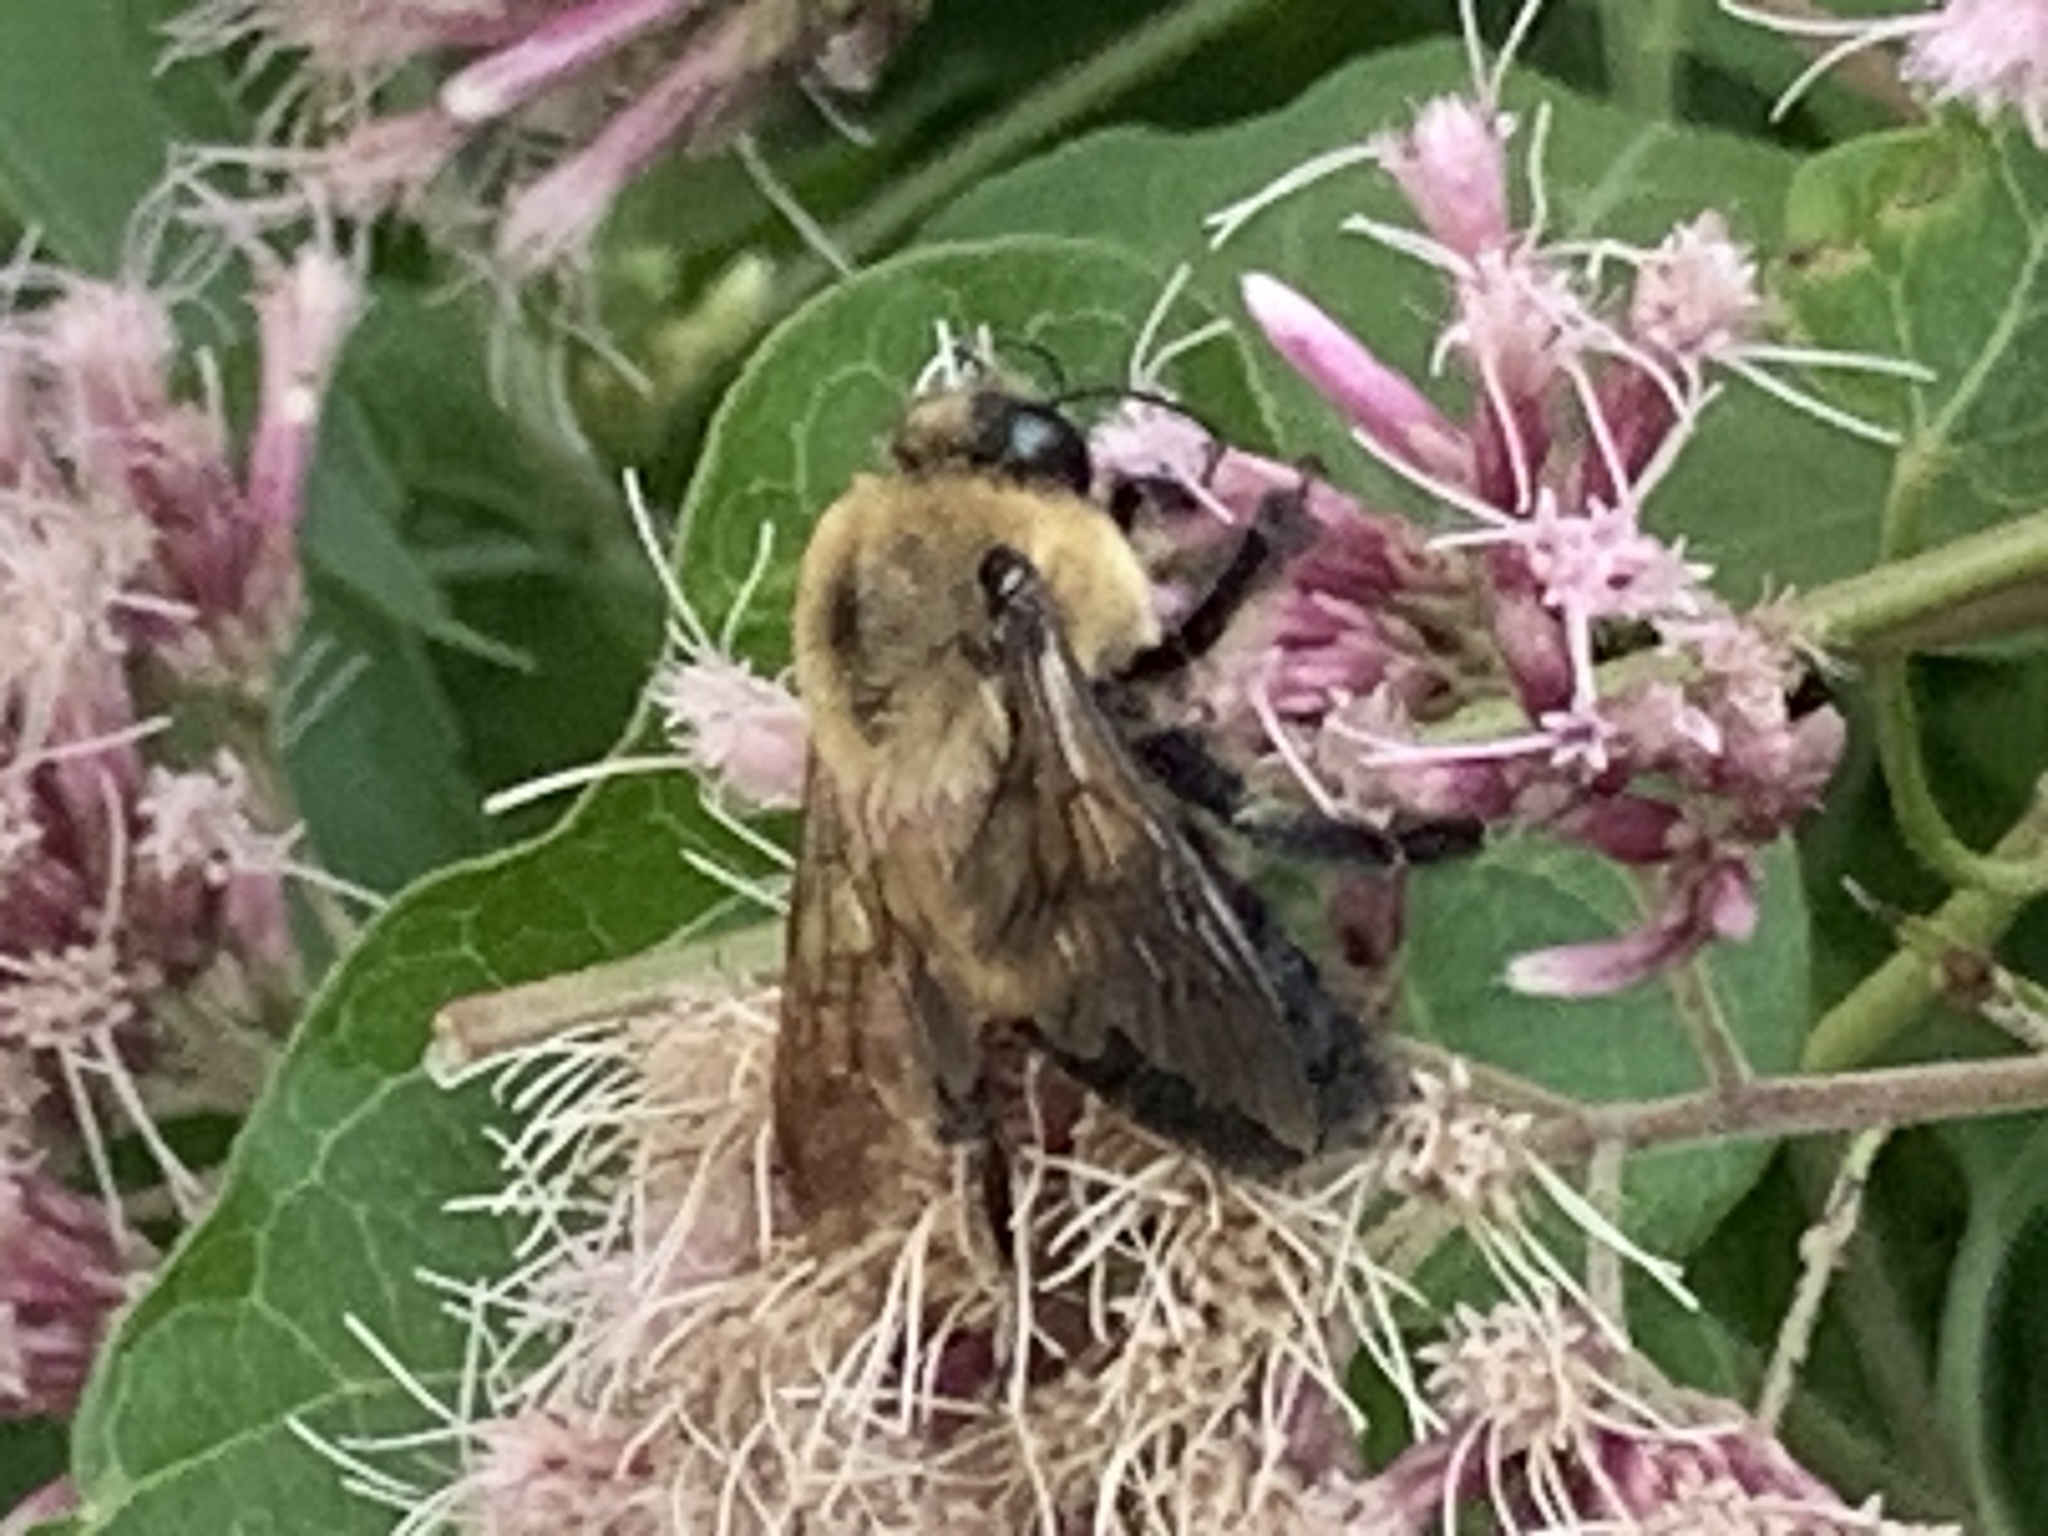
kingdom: Animalia
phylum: Arthropoda
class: Insecta
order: Hymenoptera
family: Apidae
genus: Bombus
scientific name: Bombus griseocollis
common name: Brown-belted bumble bee
